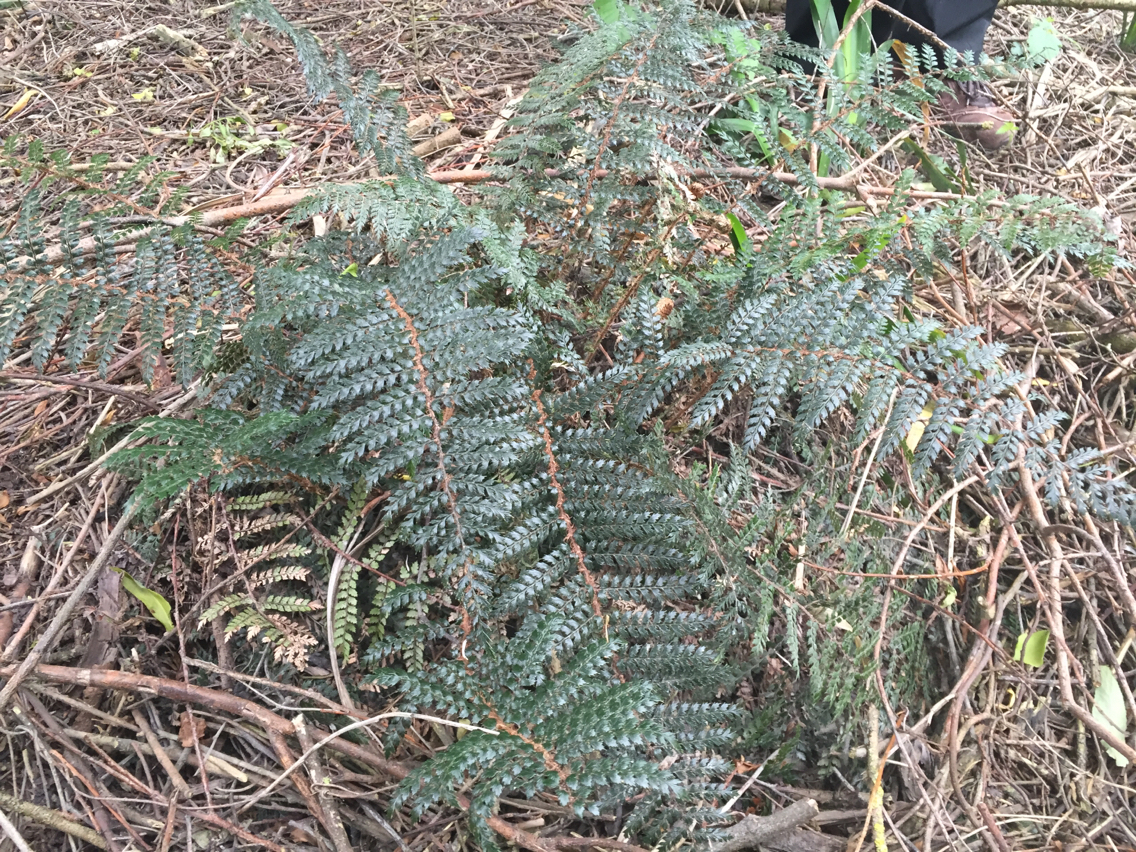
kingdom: Plantae
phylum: Tracheophyta
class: Polypodiopsida
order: Polypodiales
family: Dryopteridaceae
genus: Polystichum
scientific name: Polystichum vestitum
